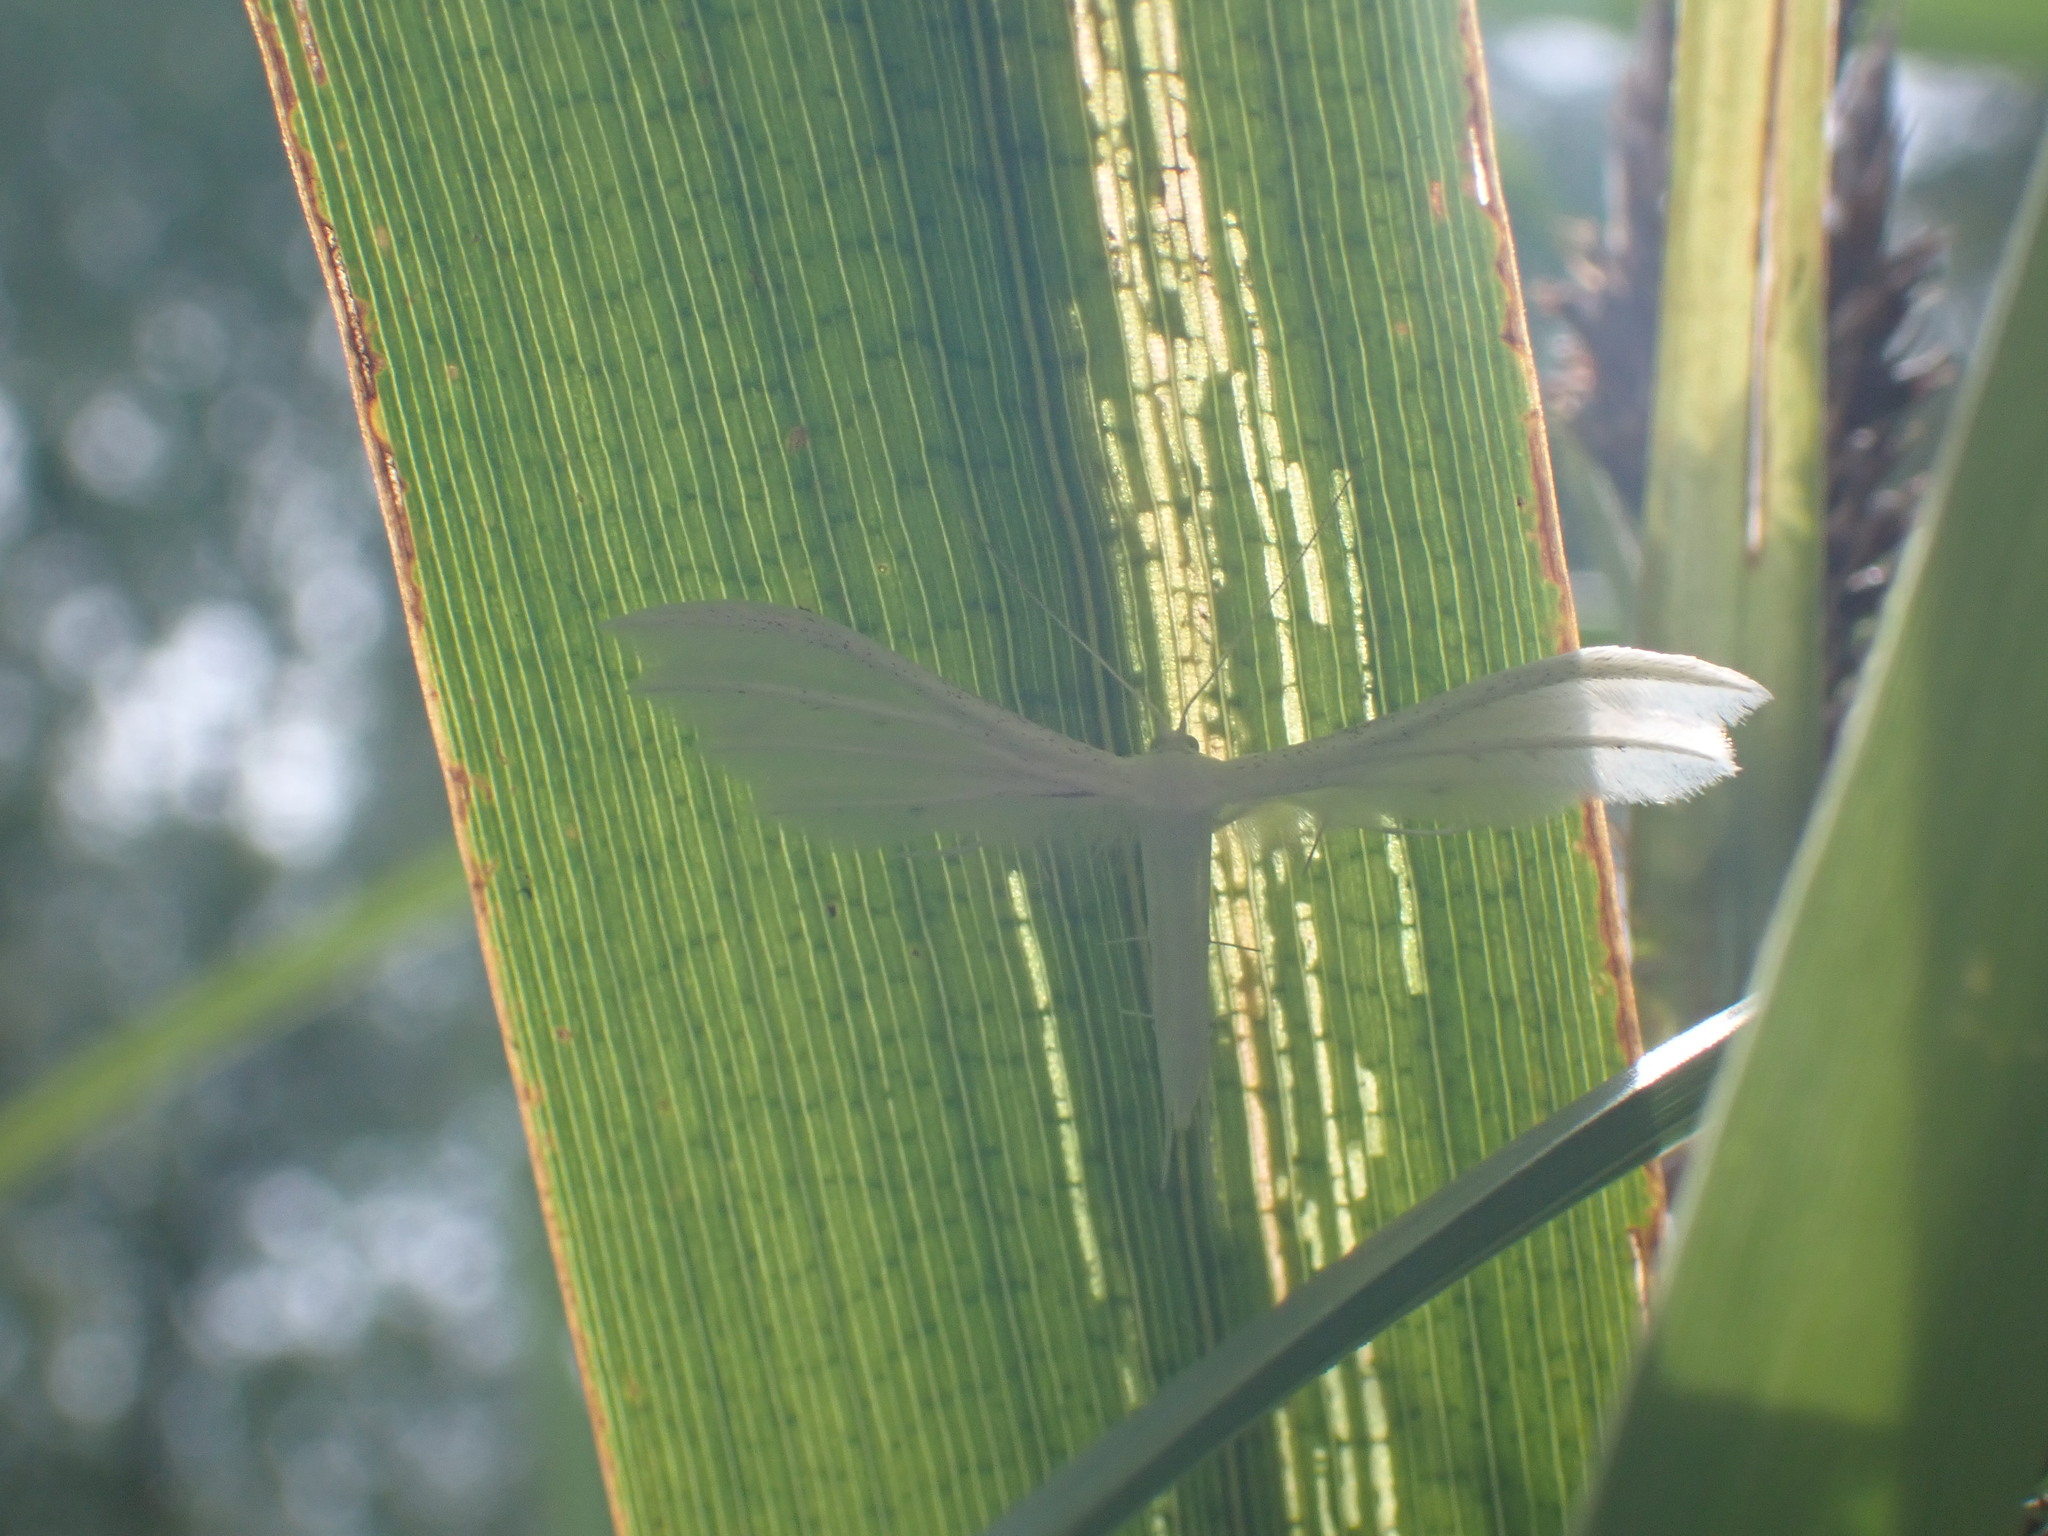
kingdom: Animalia
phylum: Arthropoda
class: Insecta
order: Lepidoptera
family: Pterophoridae
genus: Pterophorus
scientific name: Pterophorus pentadactyla
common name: White plume moth
